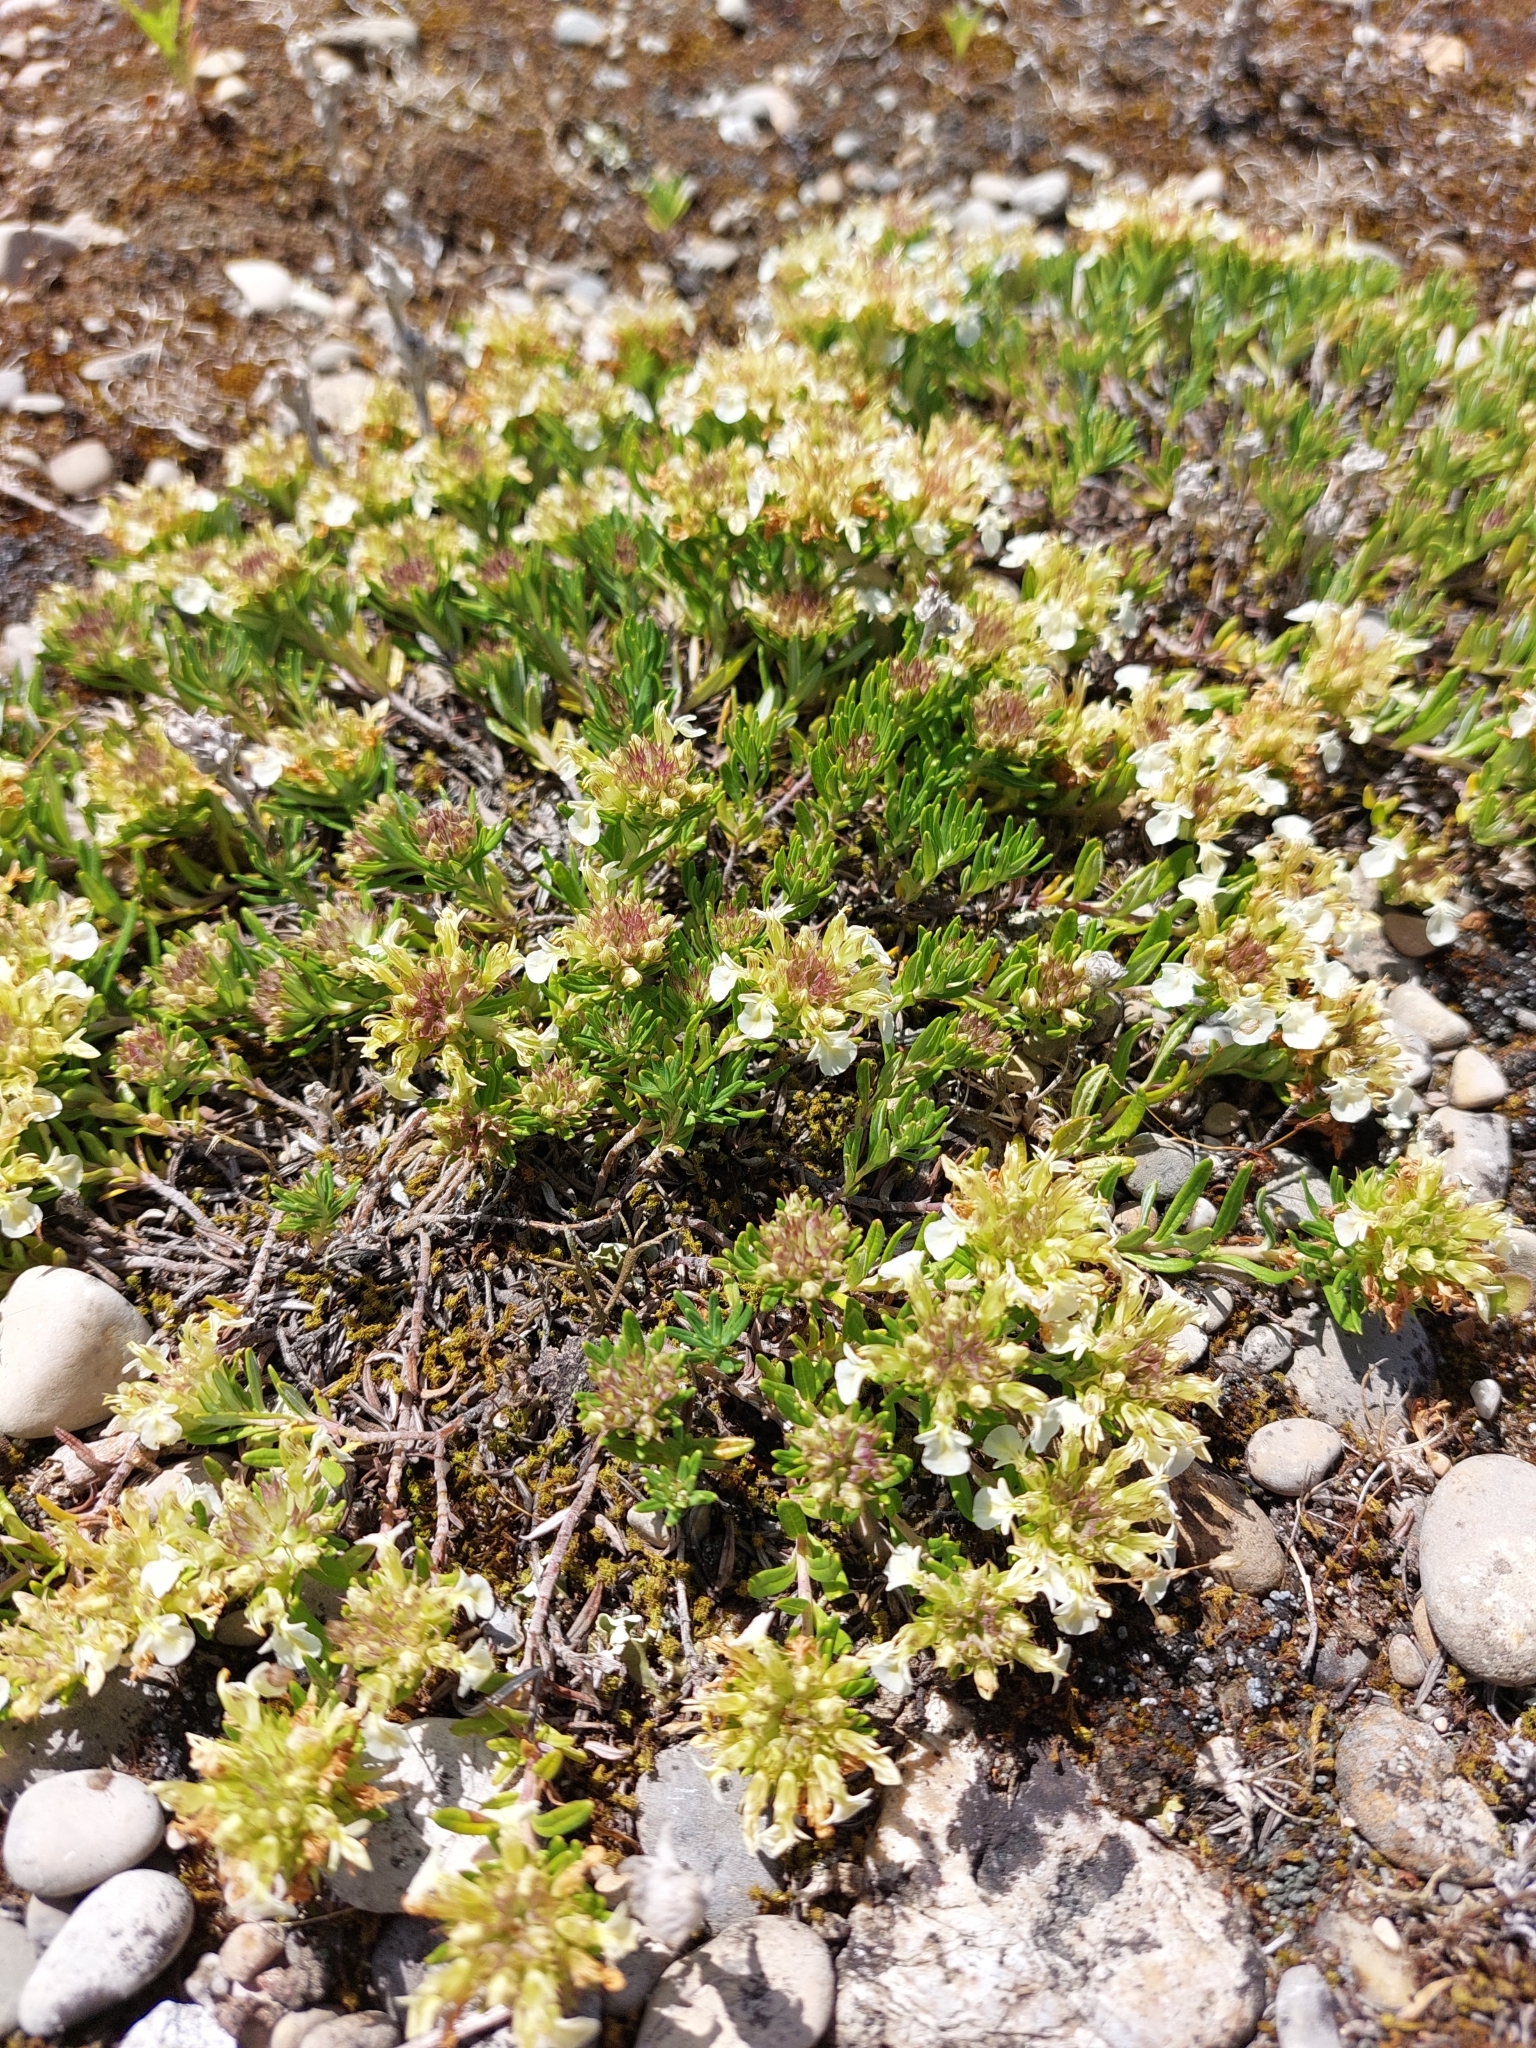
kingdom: Plantae
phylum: Tracheophyta
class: Magnoliopsida
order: Lamiales
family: Lamiaceae
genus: Teucrium
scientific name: Teucrium montanum
